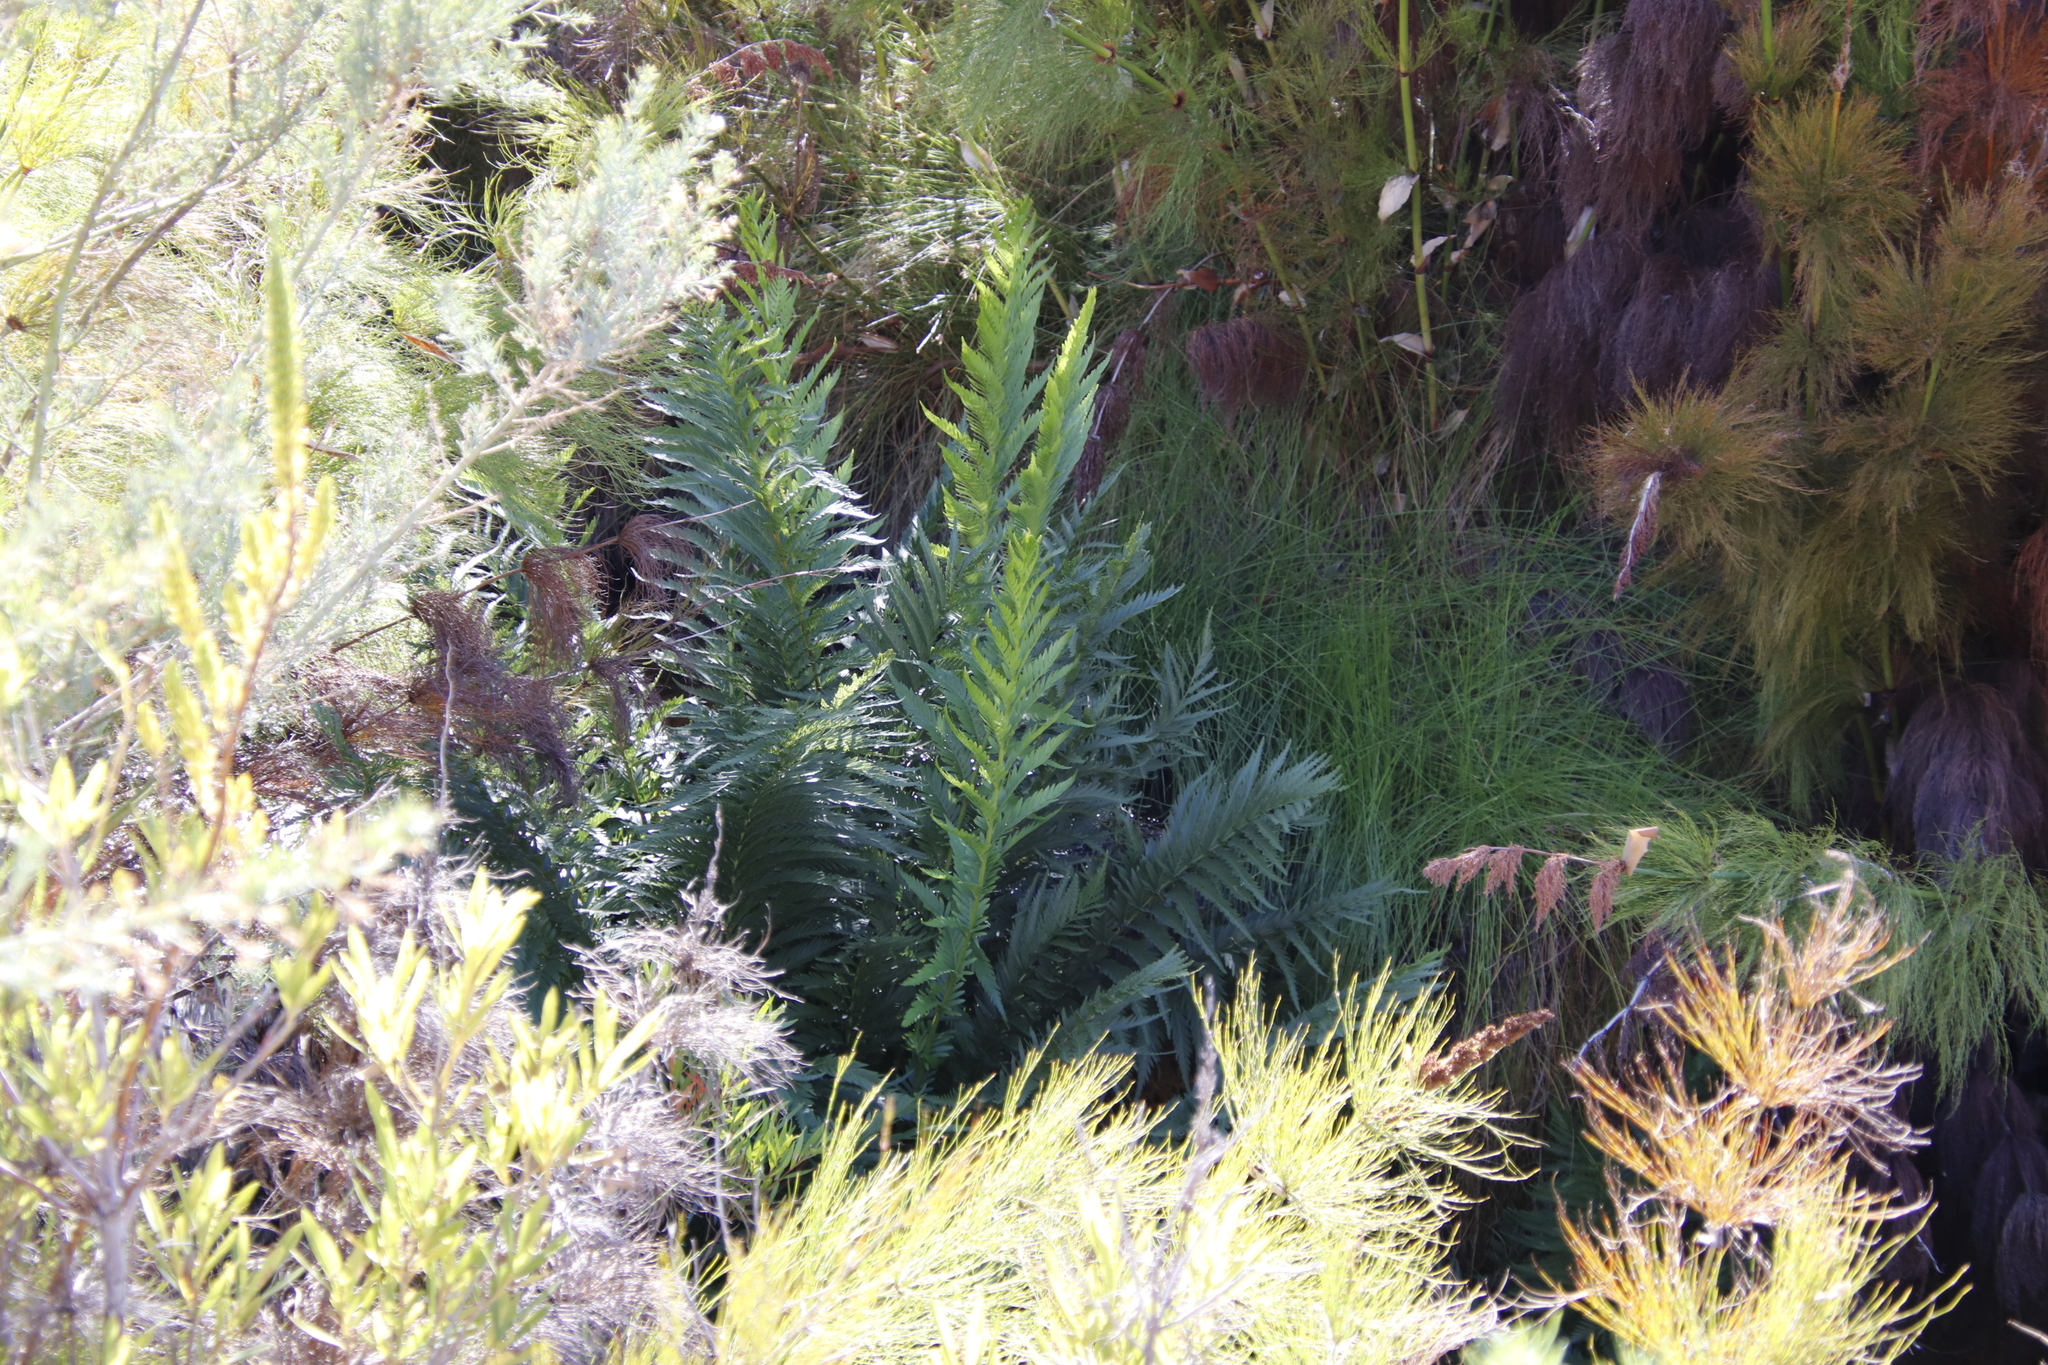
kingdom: Plantae
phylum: Tracheophyta
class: Polypodiopsida
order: Osmundales
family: Osmundaceae
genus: Todea
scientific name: Todea barbara
